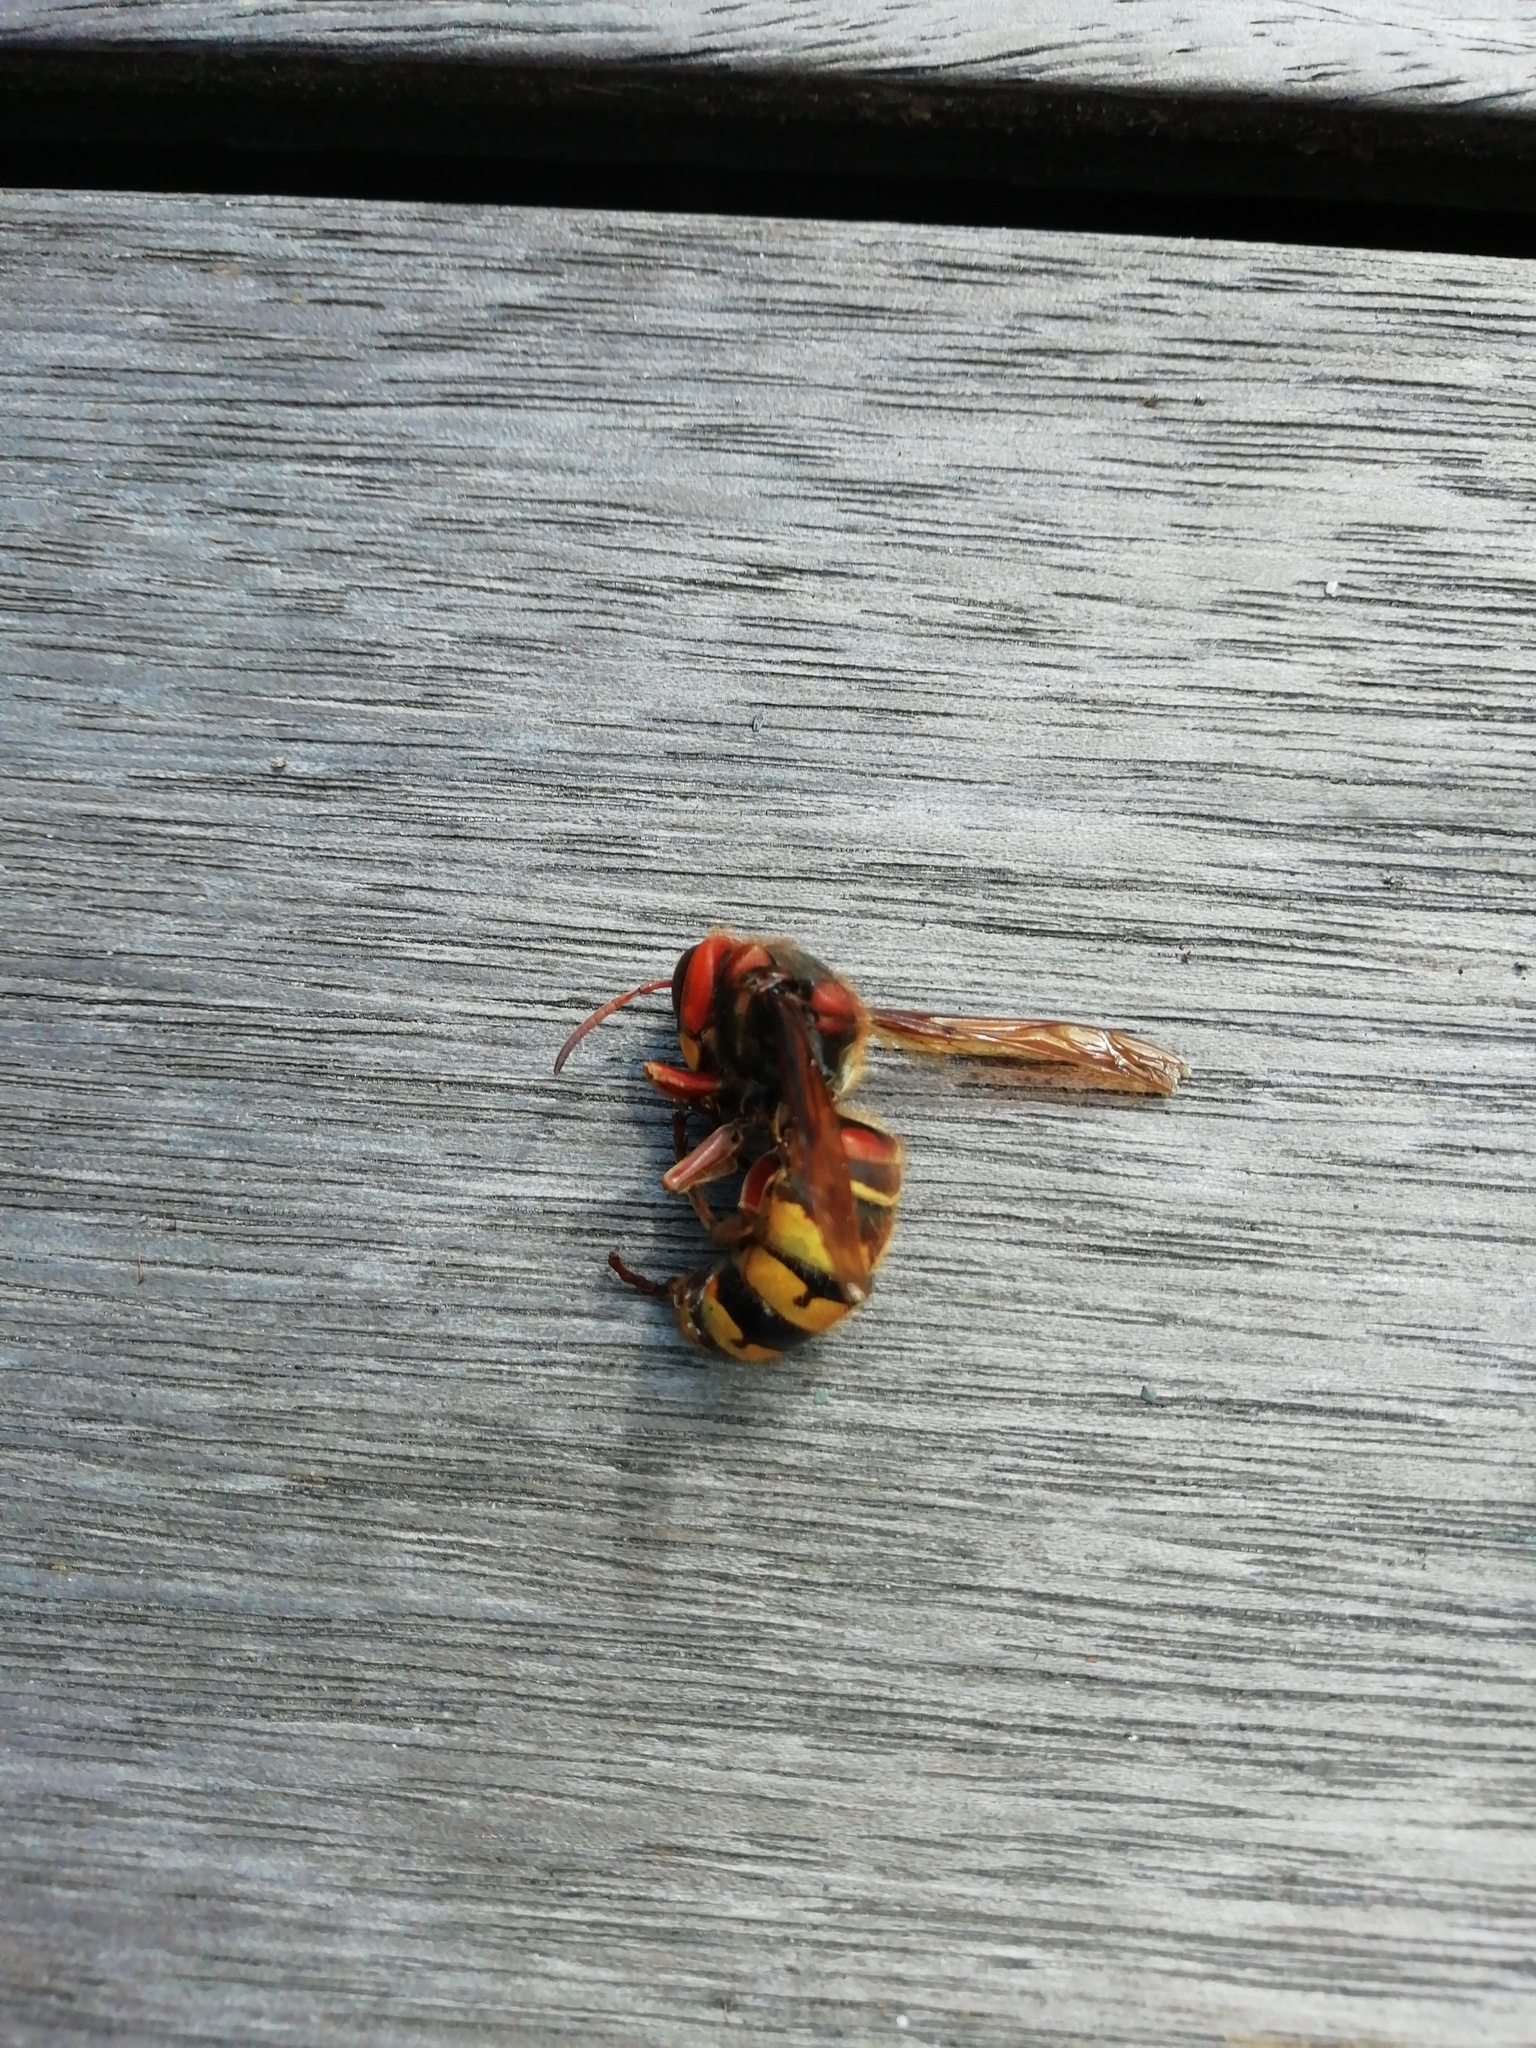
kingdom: Animalia
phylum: Arthropoda
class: Insecta
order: Hymenoptera
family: Vespidae
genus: Vespa
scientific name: Vespa crabro
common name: Hornet
